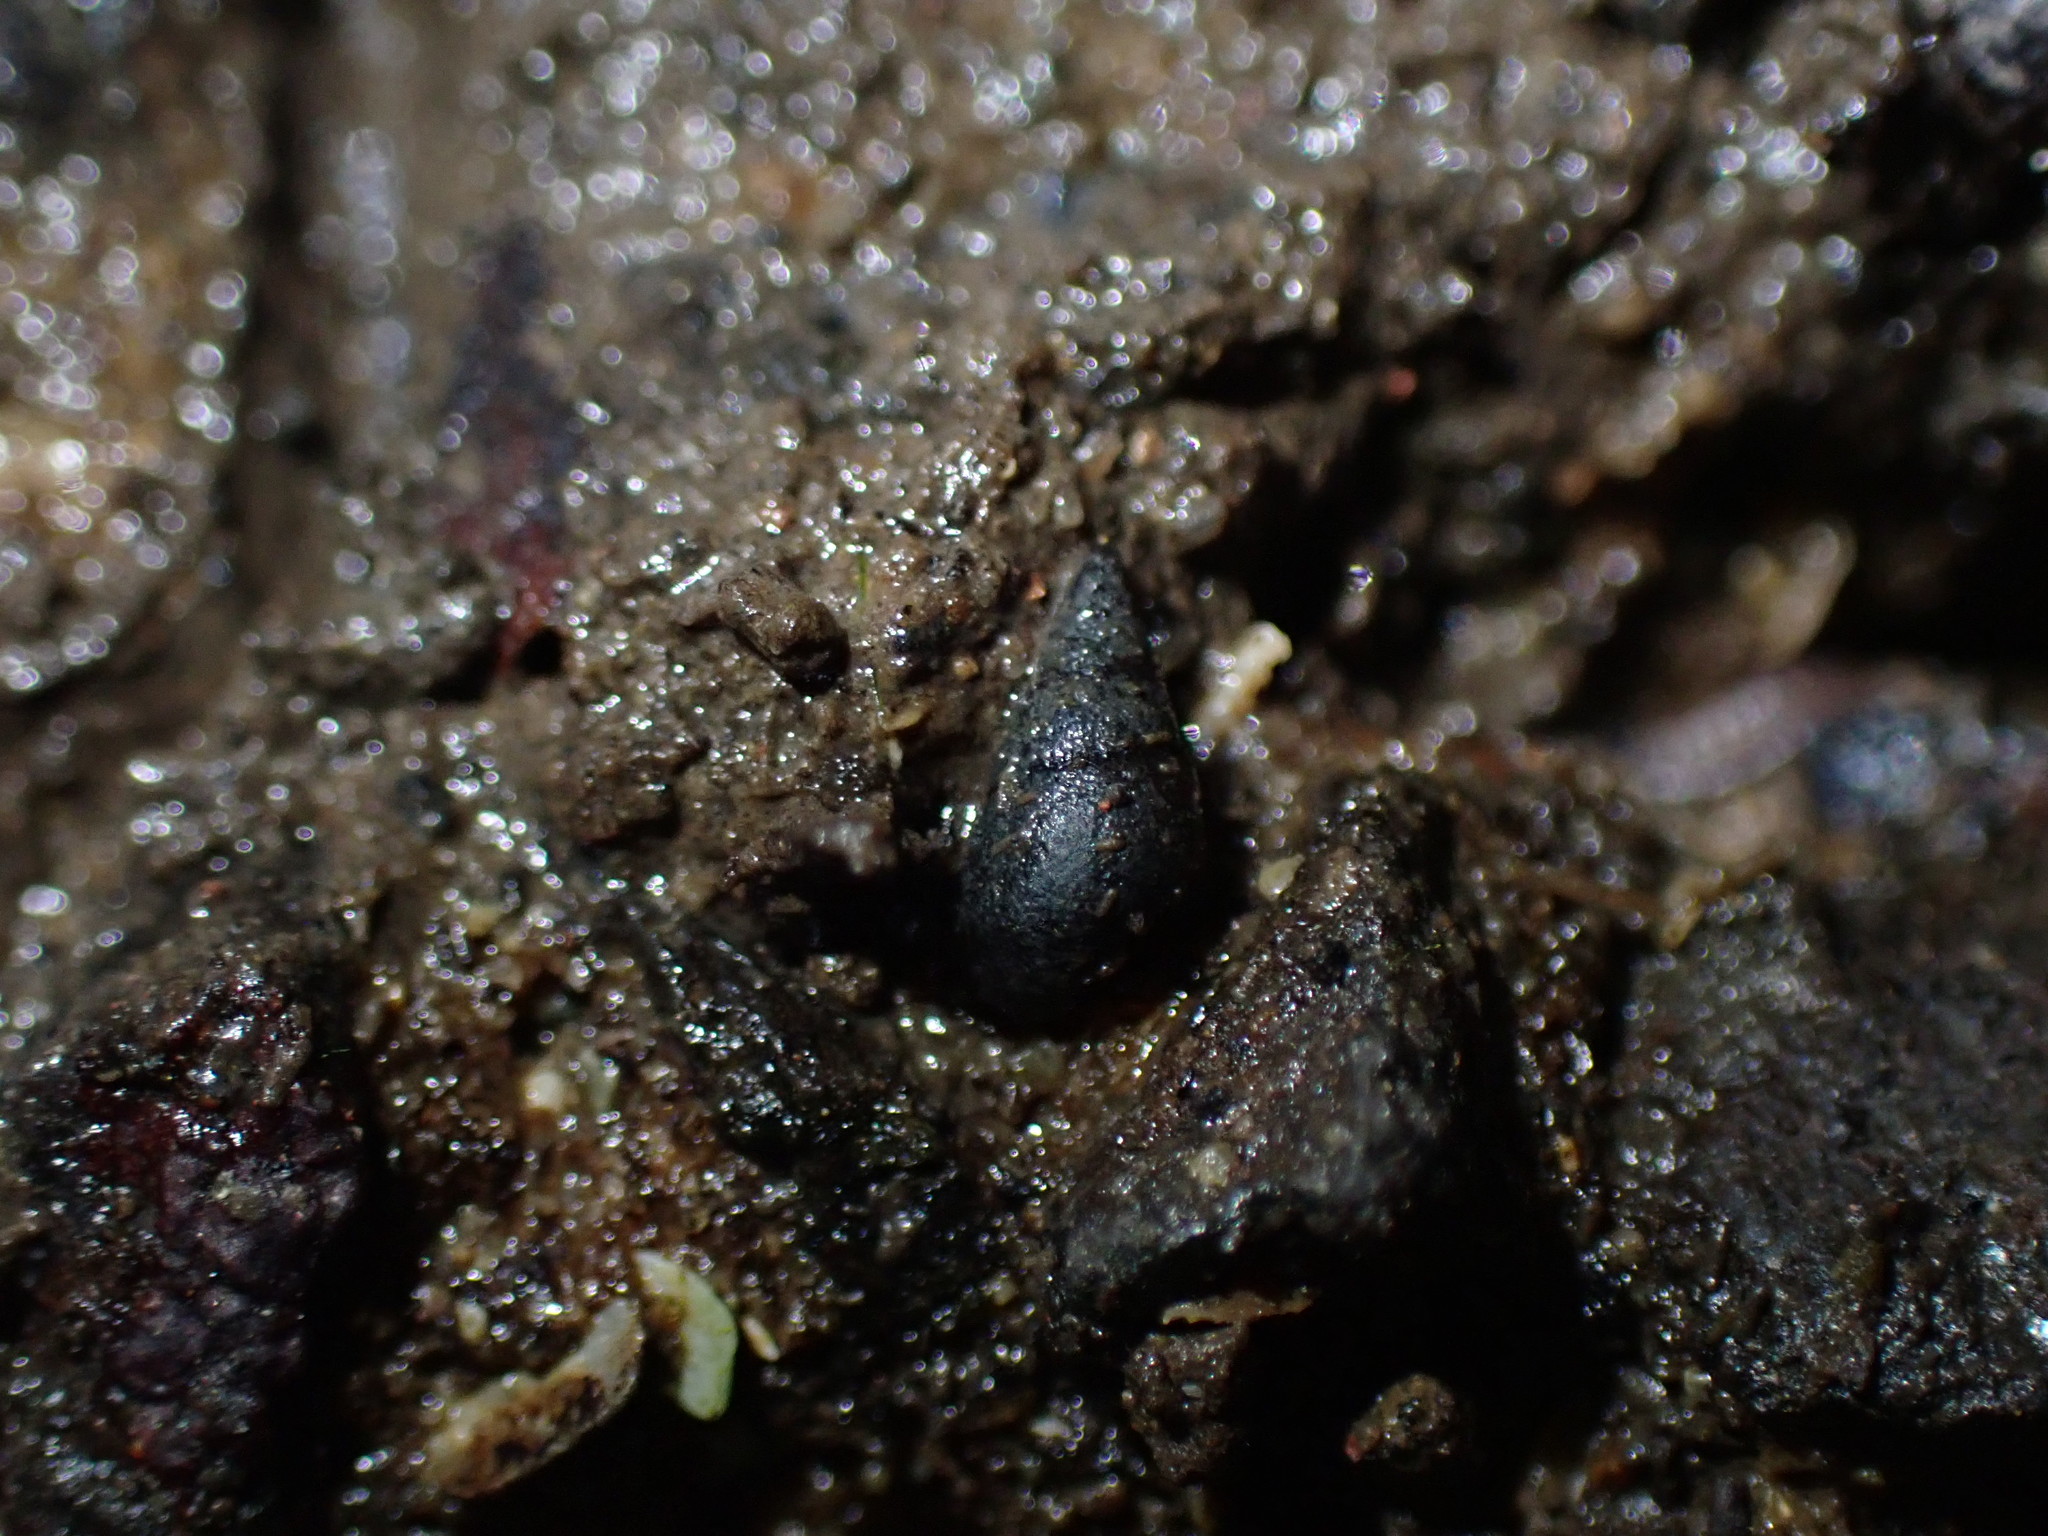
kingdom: Animalia
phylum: Mollusca
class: Gastropoda
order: Littorinimorpha
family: Tateidae
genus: Potamopyrgus
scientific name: Potamopyrgus estuarinus
